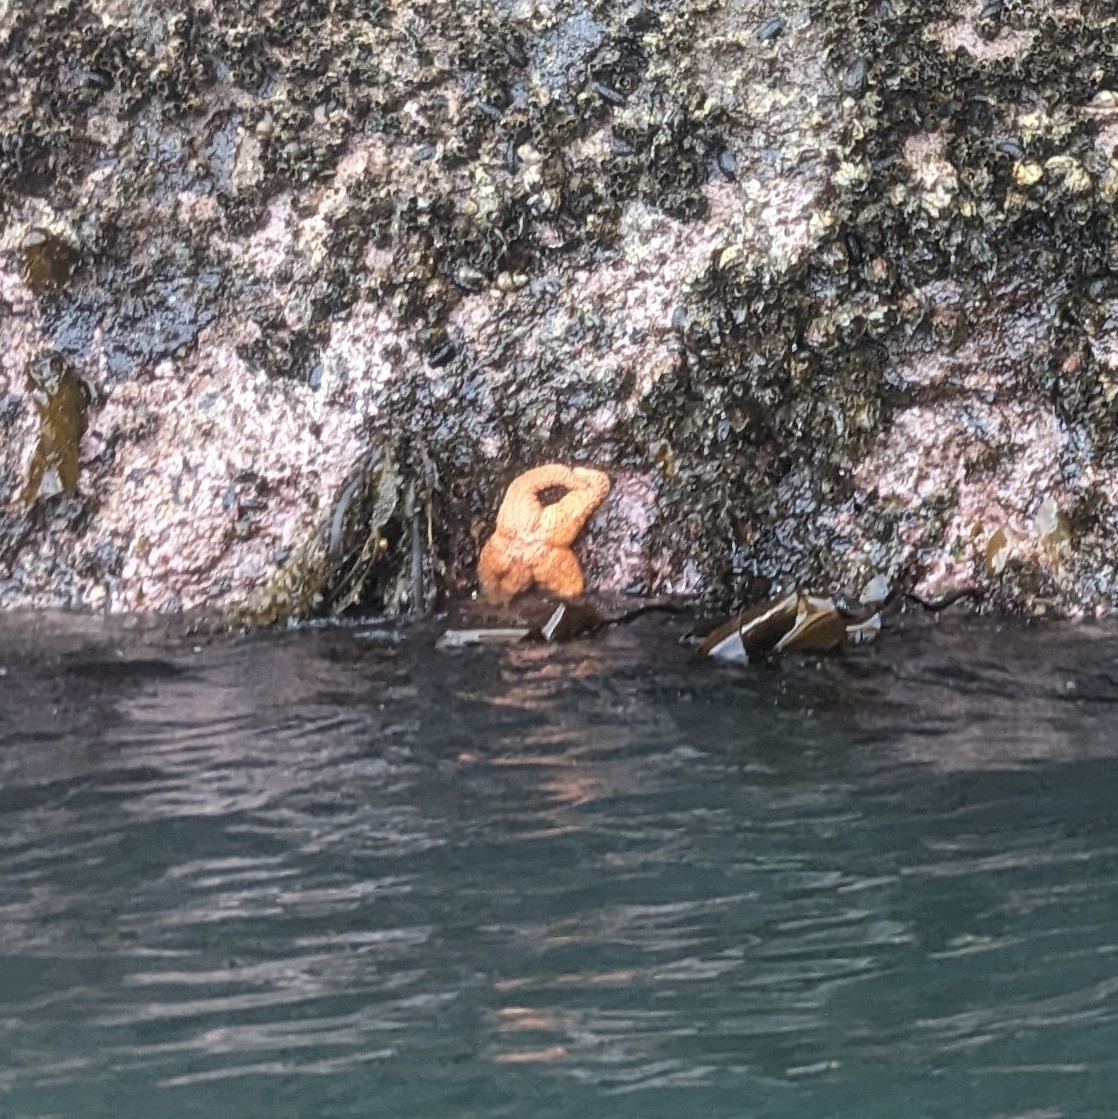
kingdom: Animalia
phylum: Echinodermata
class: Asteroidea
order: Forcipulatida
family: Asteriidae
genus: Pisaster
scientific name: Pisaster ochraceus
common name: Ochre stars
